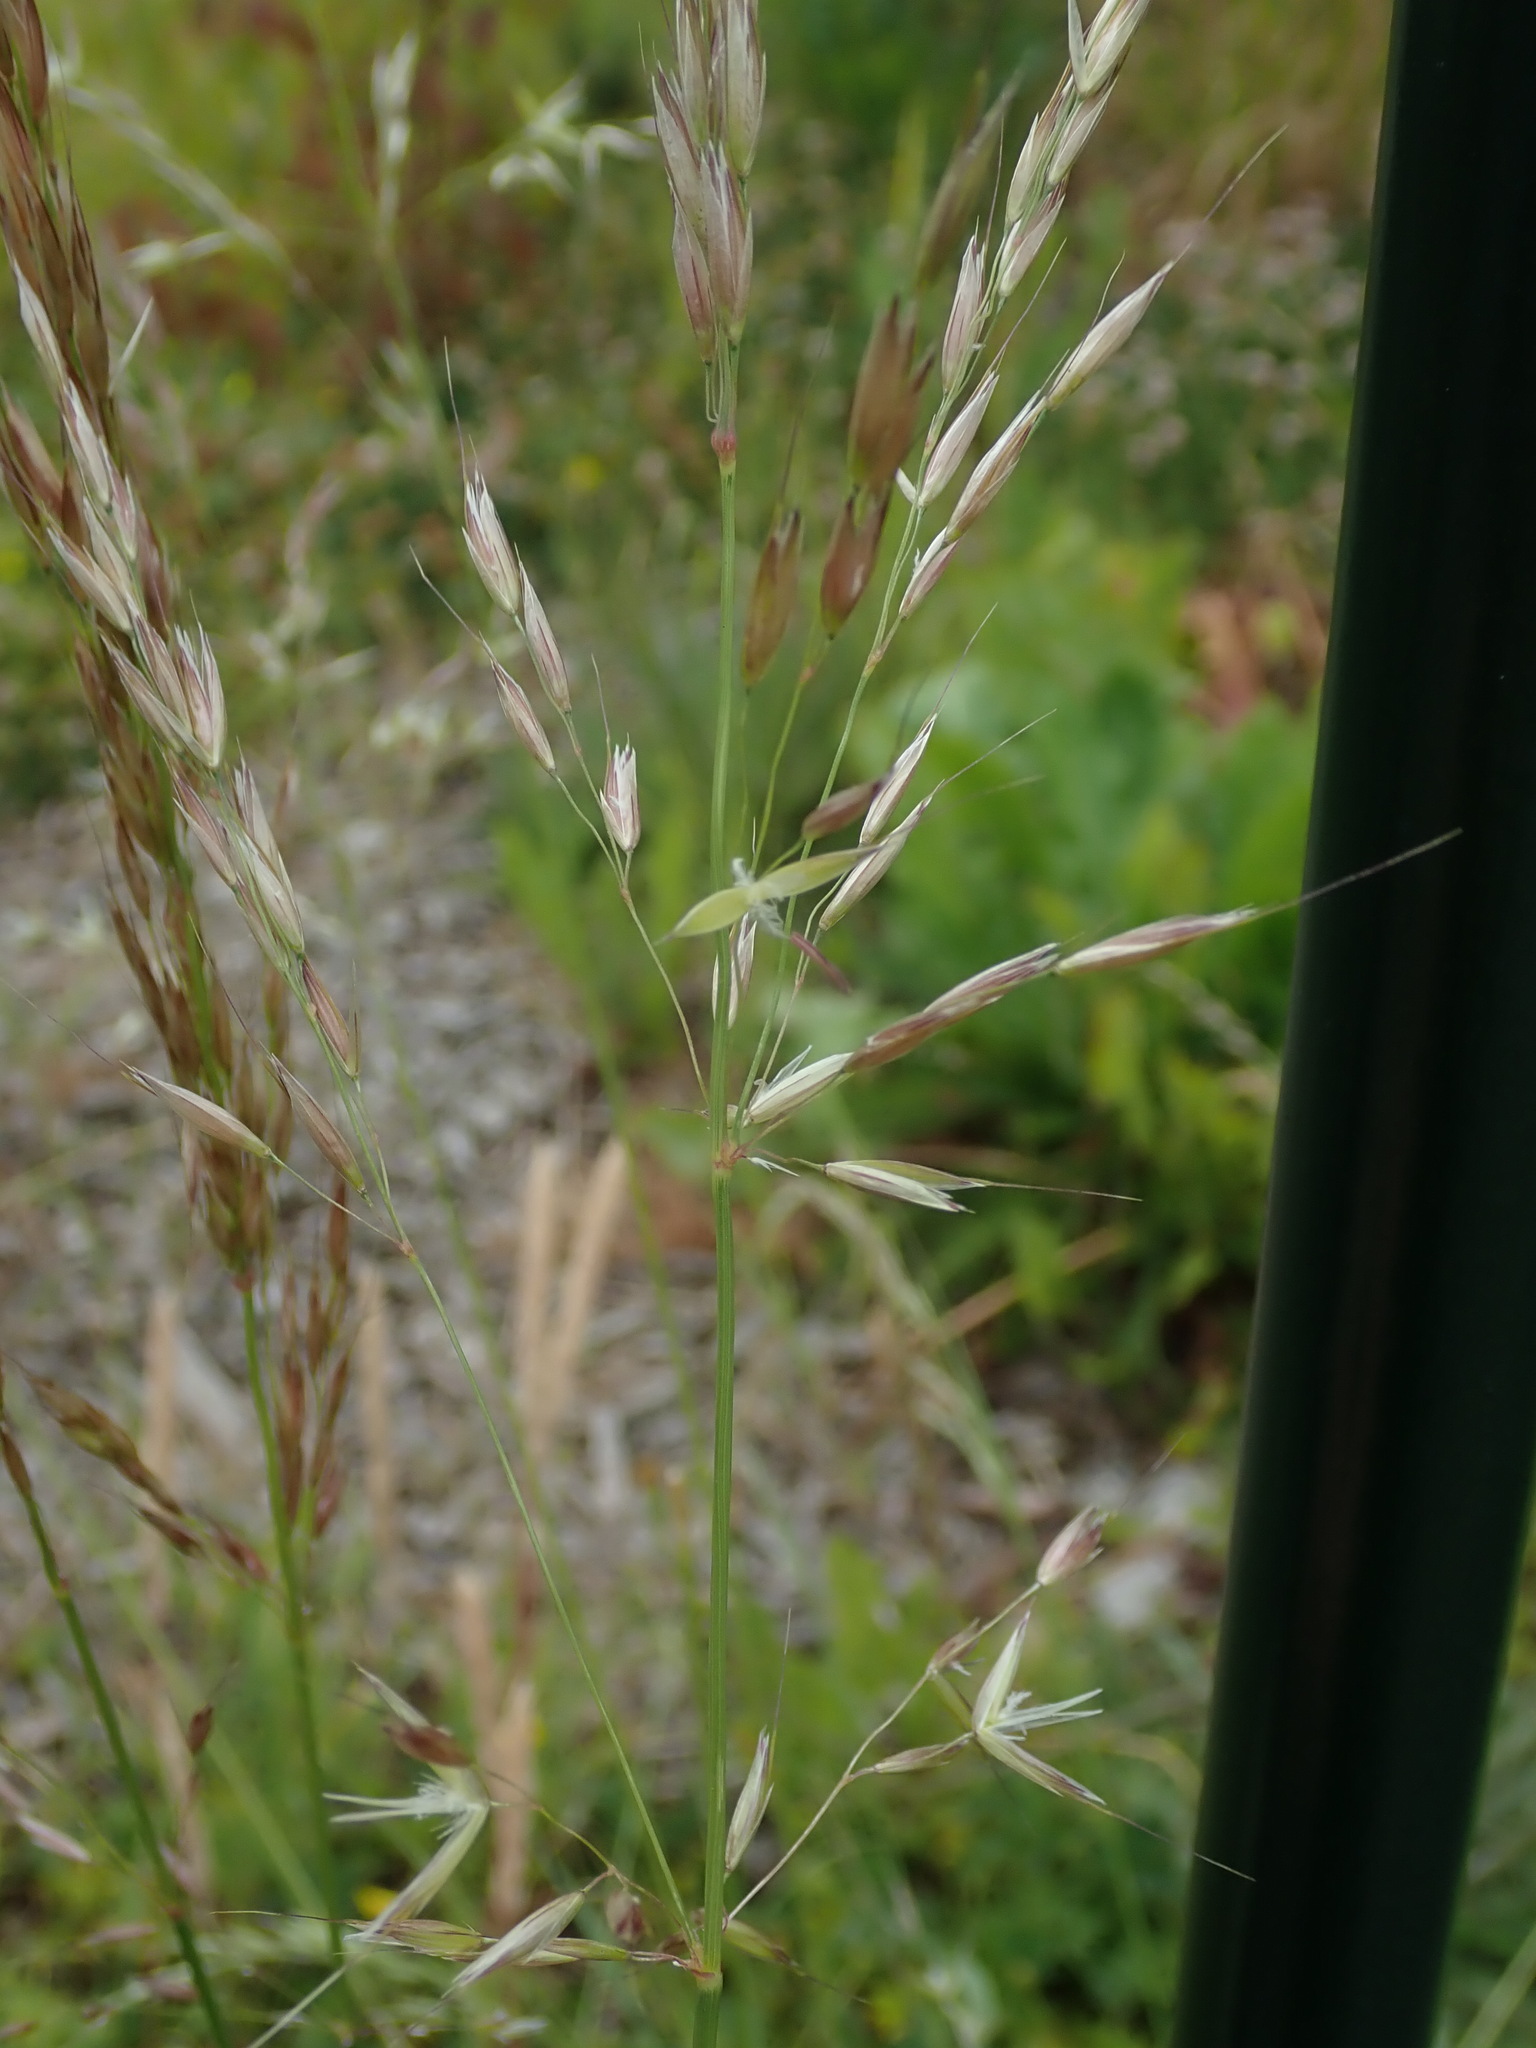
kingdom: Plantae
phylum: Tracheophyta
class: Liliopsida
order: Poales
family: Poaceae
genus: Arrhenatherum
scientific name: Arrhenatherum elatius
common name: Tall oatgrass
